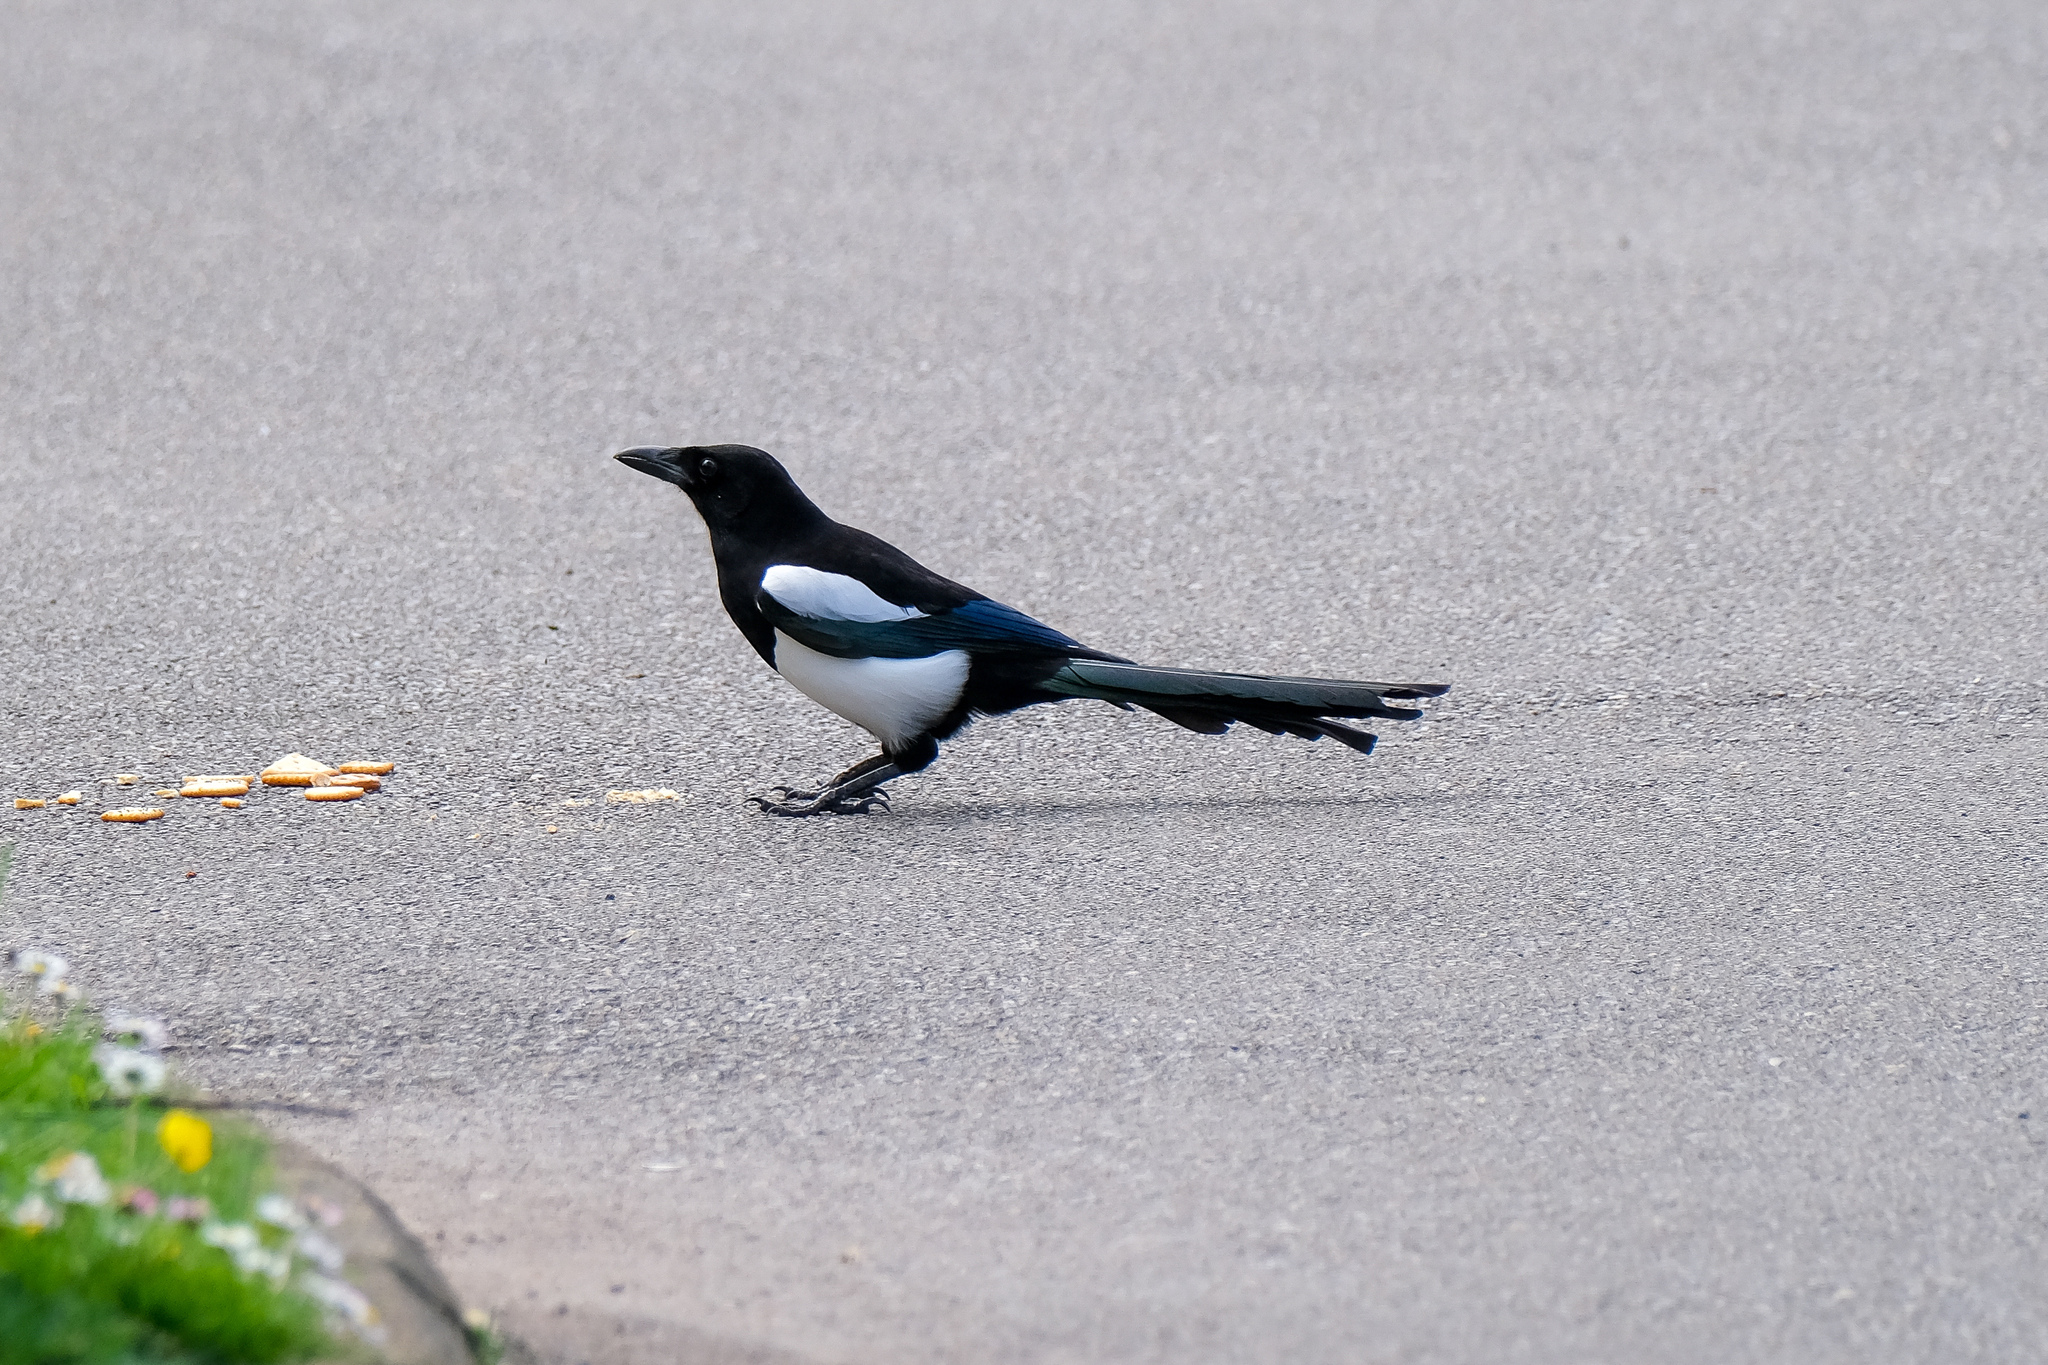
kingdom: Animalia
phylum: Chordata
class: Aves
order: Passeriformes
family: Corvidae
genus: Pica
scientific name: Pica pica
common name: Eurasian magpie
